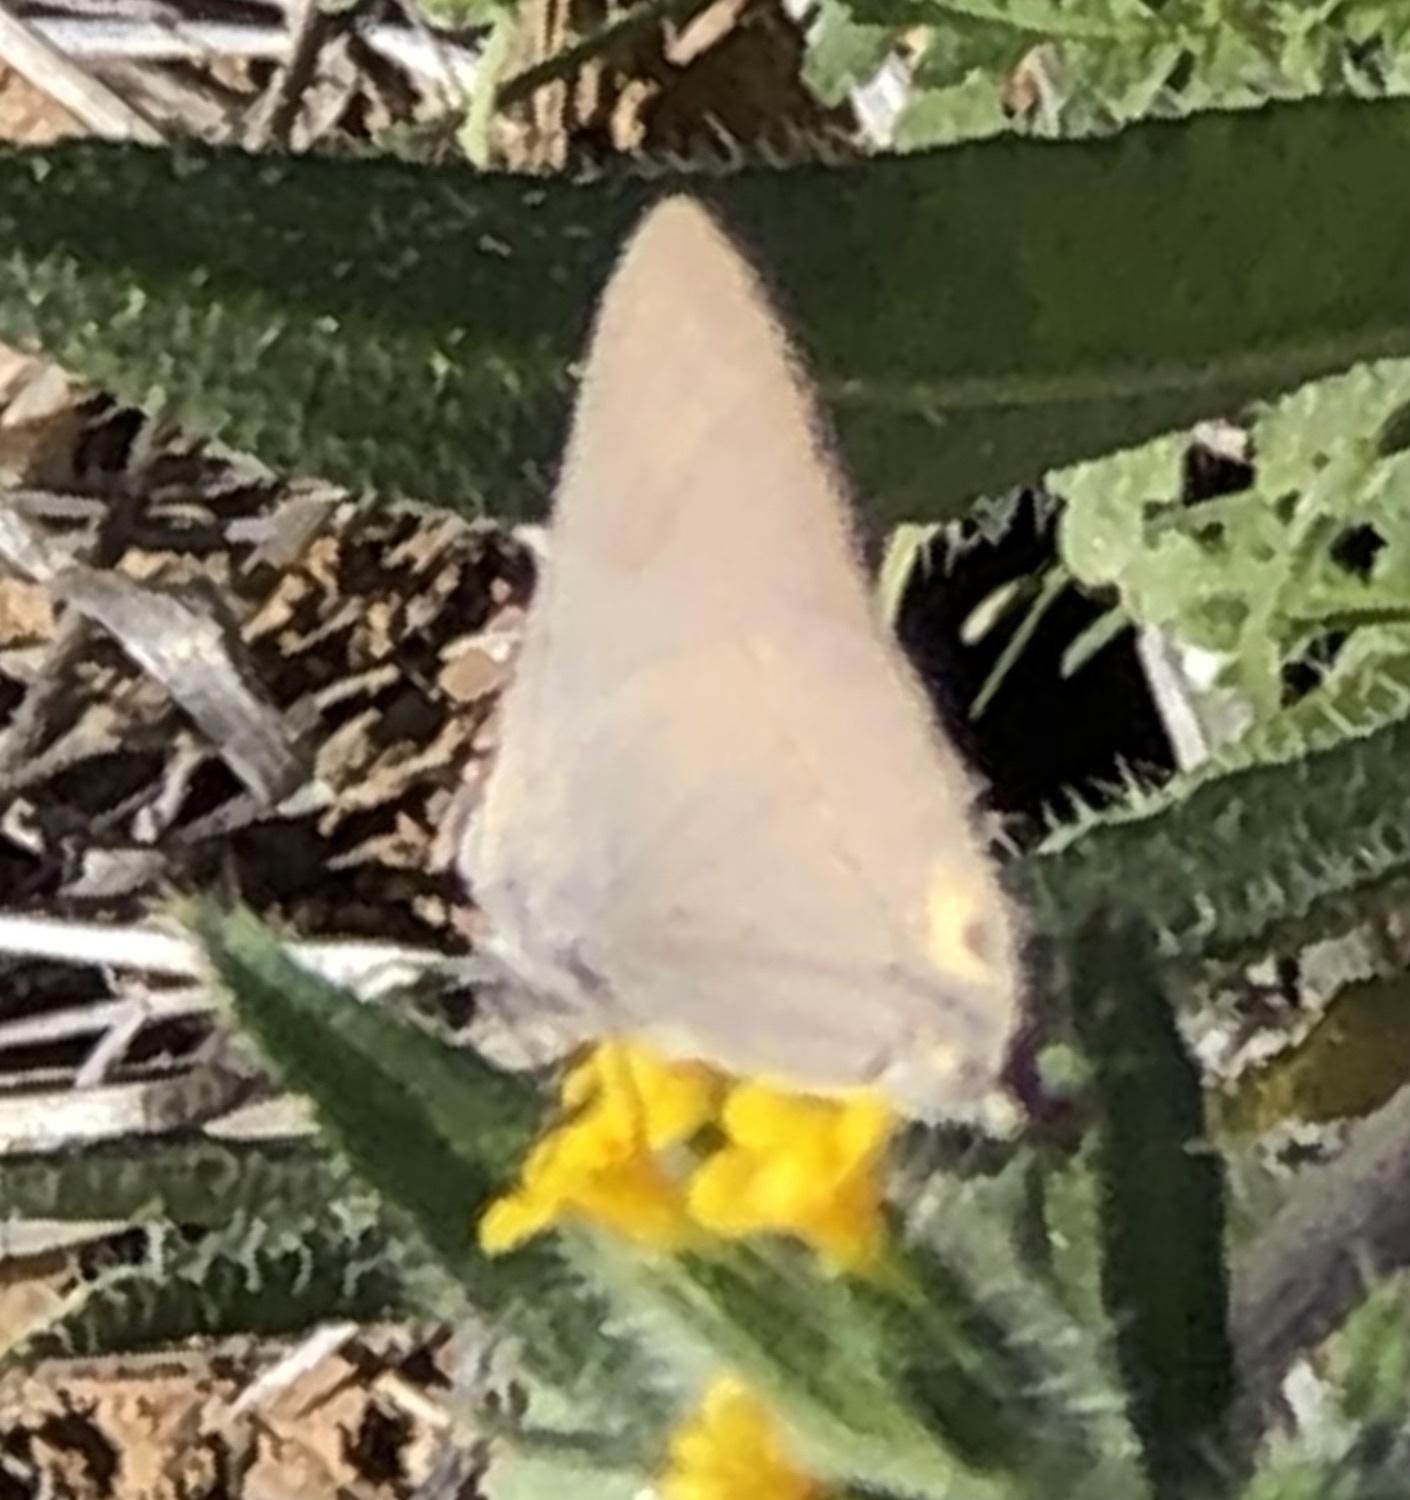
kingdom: Animalia
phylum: Arthropoda
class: Insecta
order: Lepidoptera
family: Lycaenidae
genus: Strymon
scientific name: Strymon melinus
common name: Gray hairstreak
